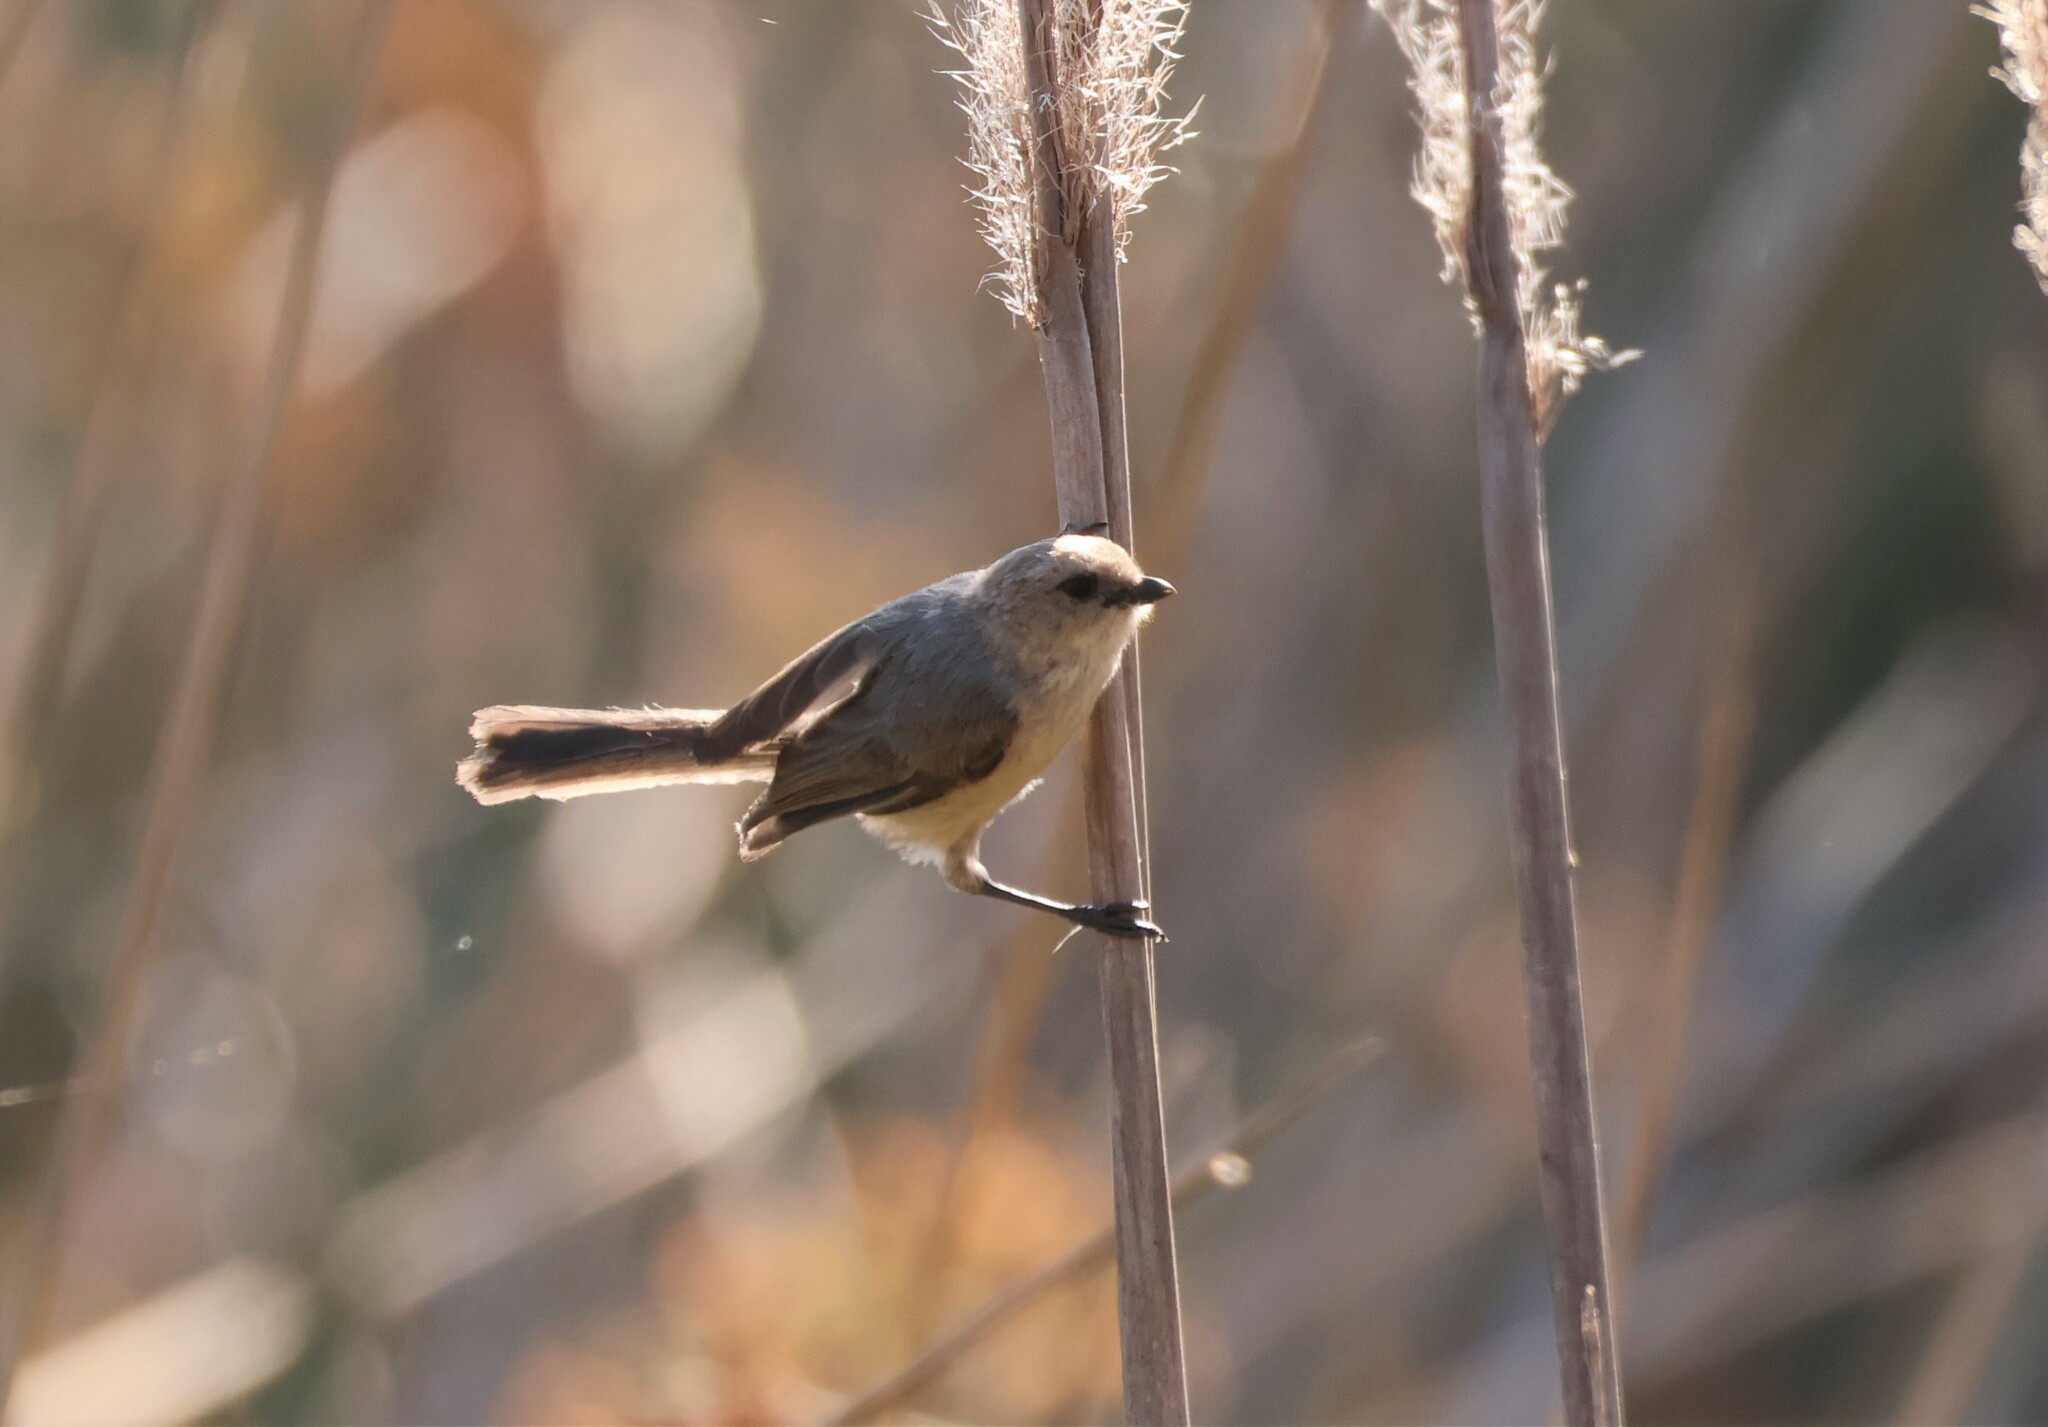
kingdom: Animalia
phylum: Chordata
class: Aves
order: Passeriformes
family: Aegithalidae
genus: Psaltriparus
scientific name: Psaltriparus minimus
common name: American bushtit
